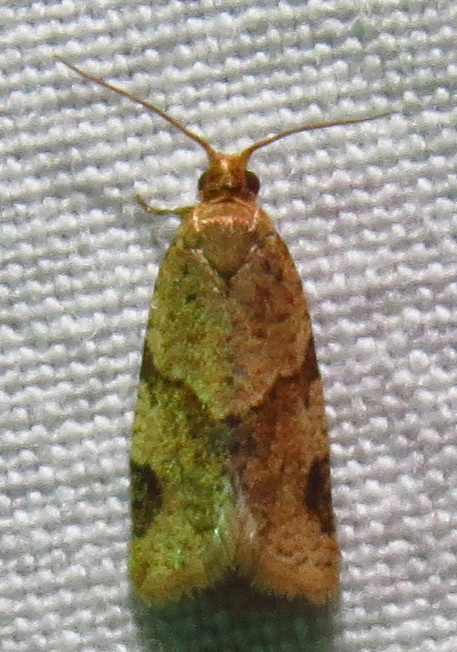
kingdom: Animalia
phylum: Arthropoda
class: Insecta
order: Lepidoptera
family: Tortricidae
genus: Clepsis
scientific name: Clepsis peritana
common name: Garden tortrix
